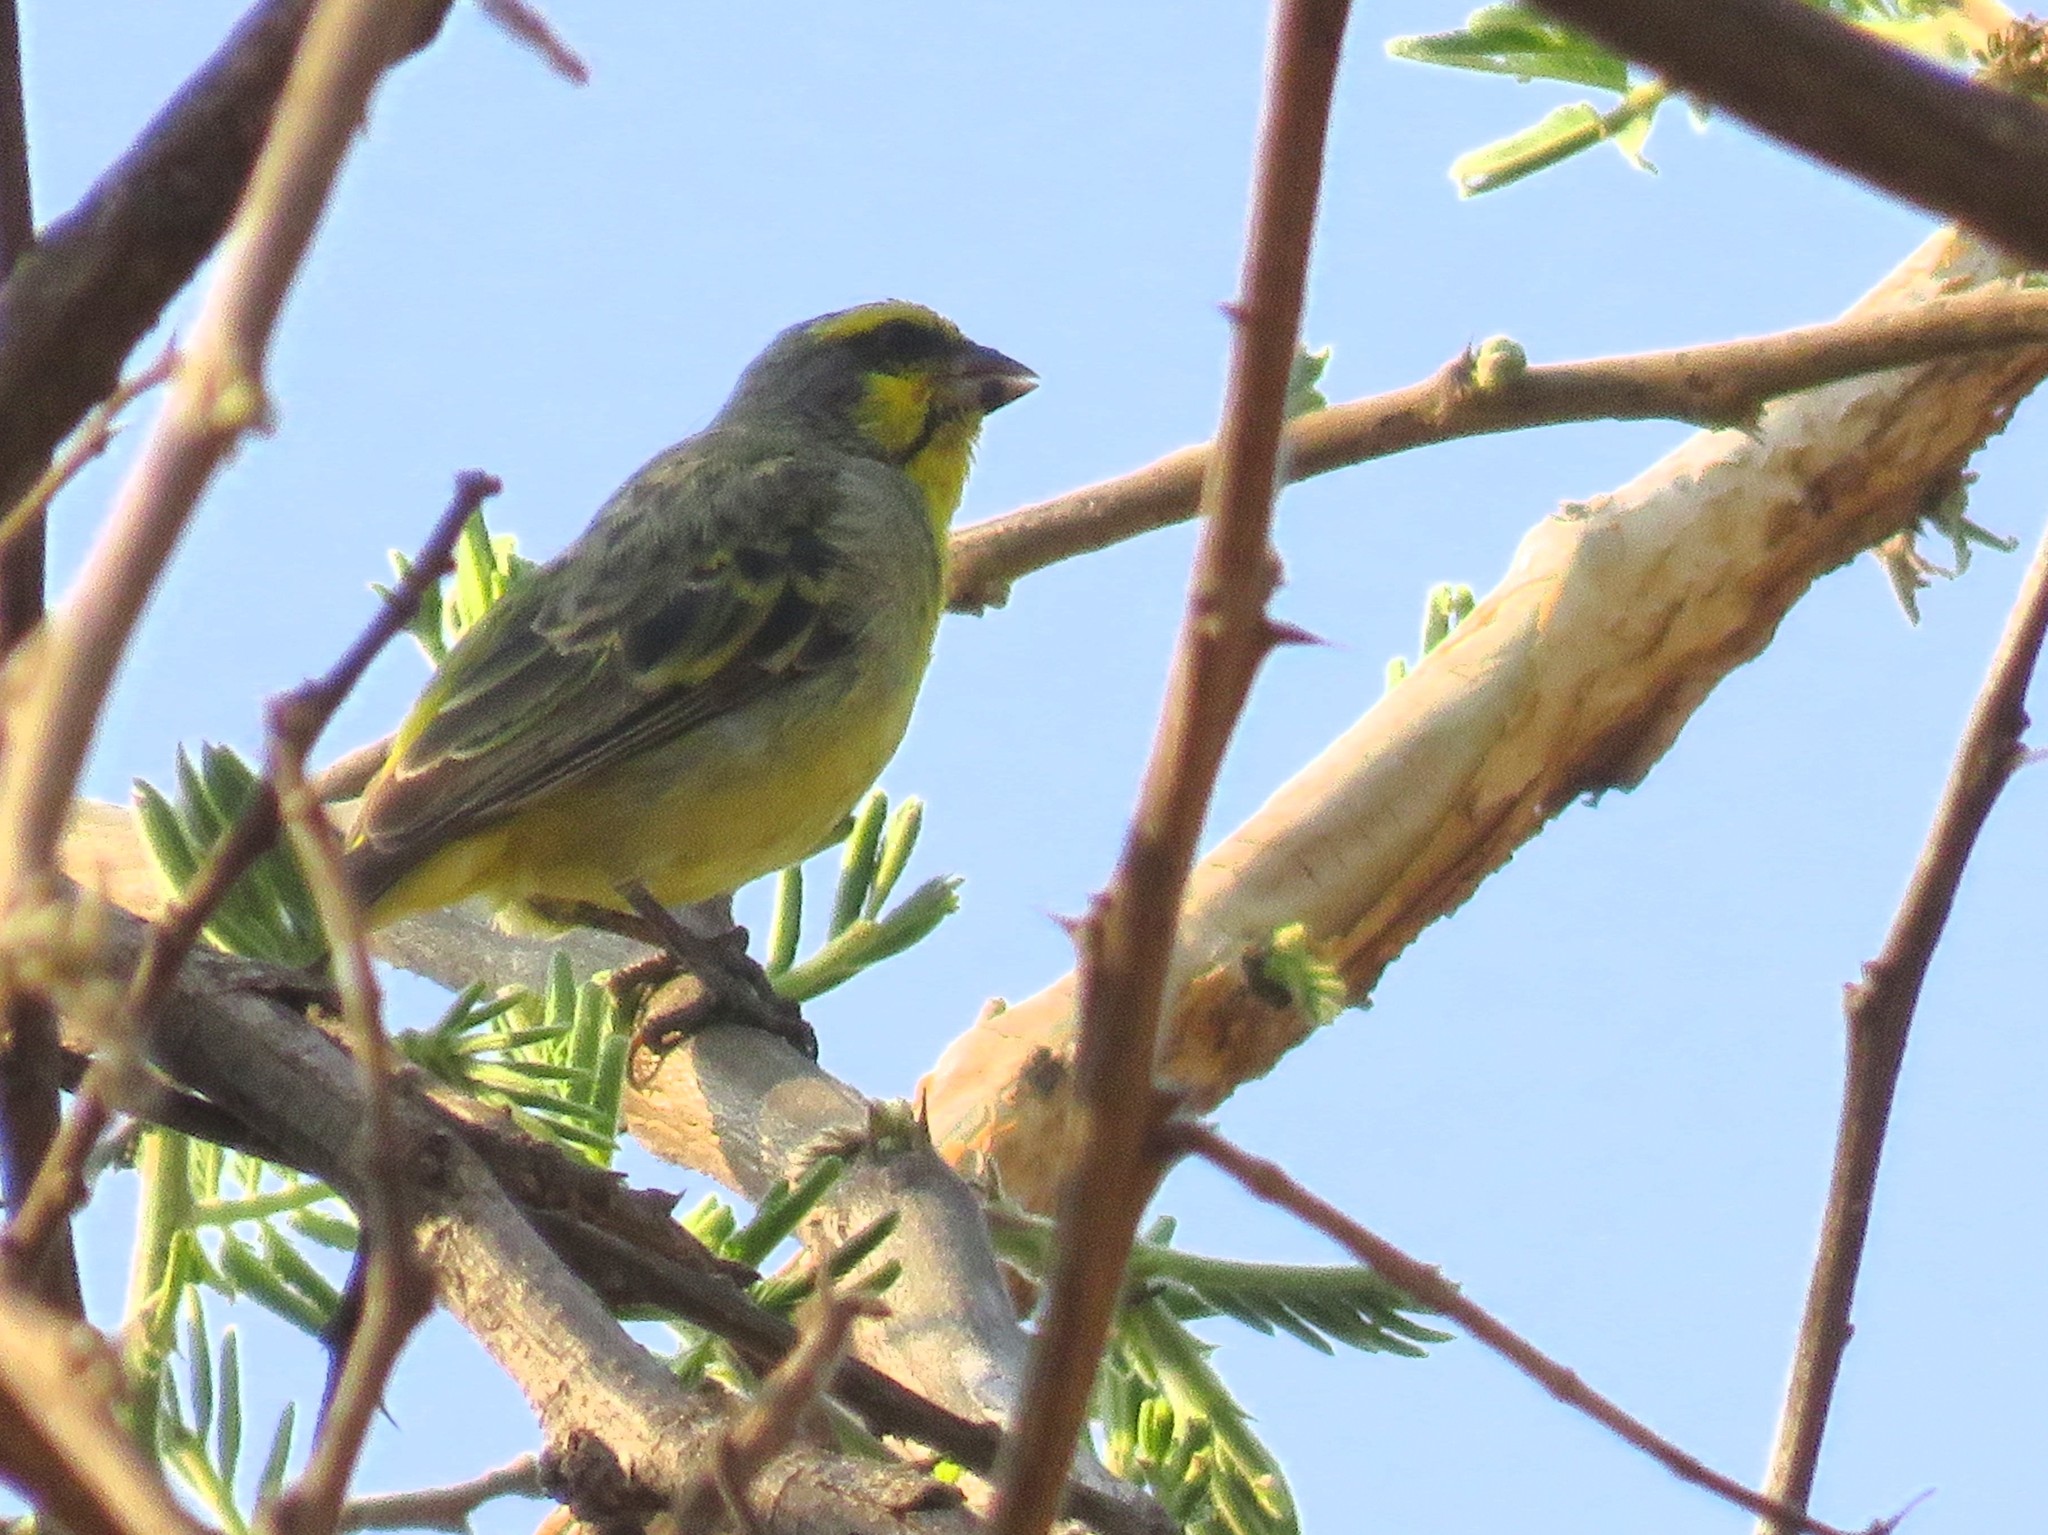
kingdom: Animalia
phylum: Chordata
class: Aves
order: Passeriformes
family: Fringillidae
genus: Crithagra
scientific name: Crithagra mozambica
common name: Yellow-fronted canary
